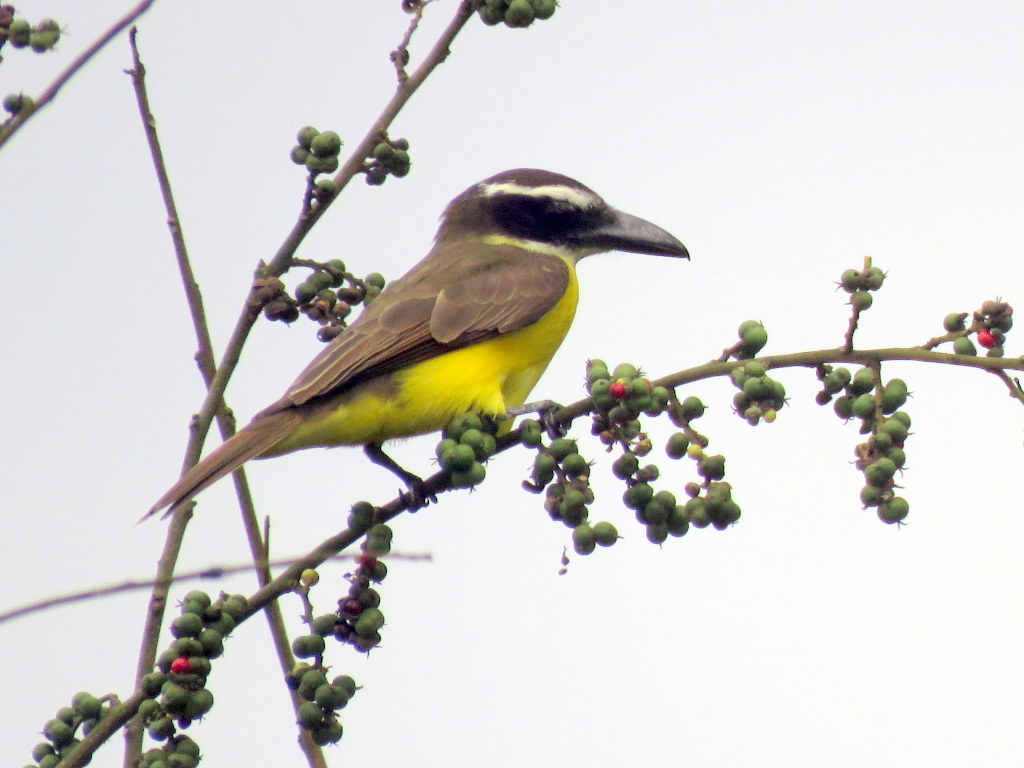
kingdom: Animalia
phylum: Chordata
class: Aves
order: Passeriformes
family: Tyrannidae
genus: Megarynchus
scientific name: Megarynchus pitangua
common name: Boat-billed flycatcher
